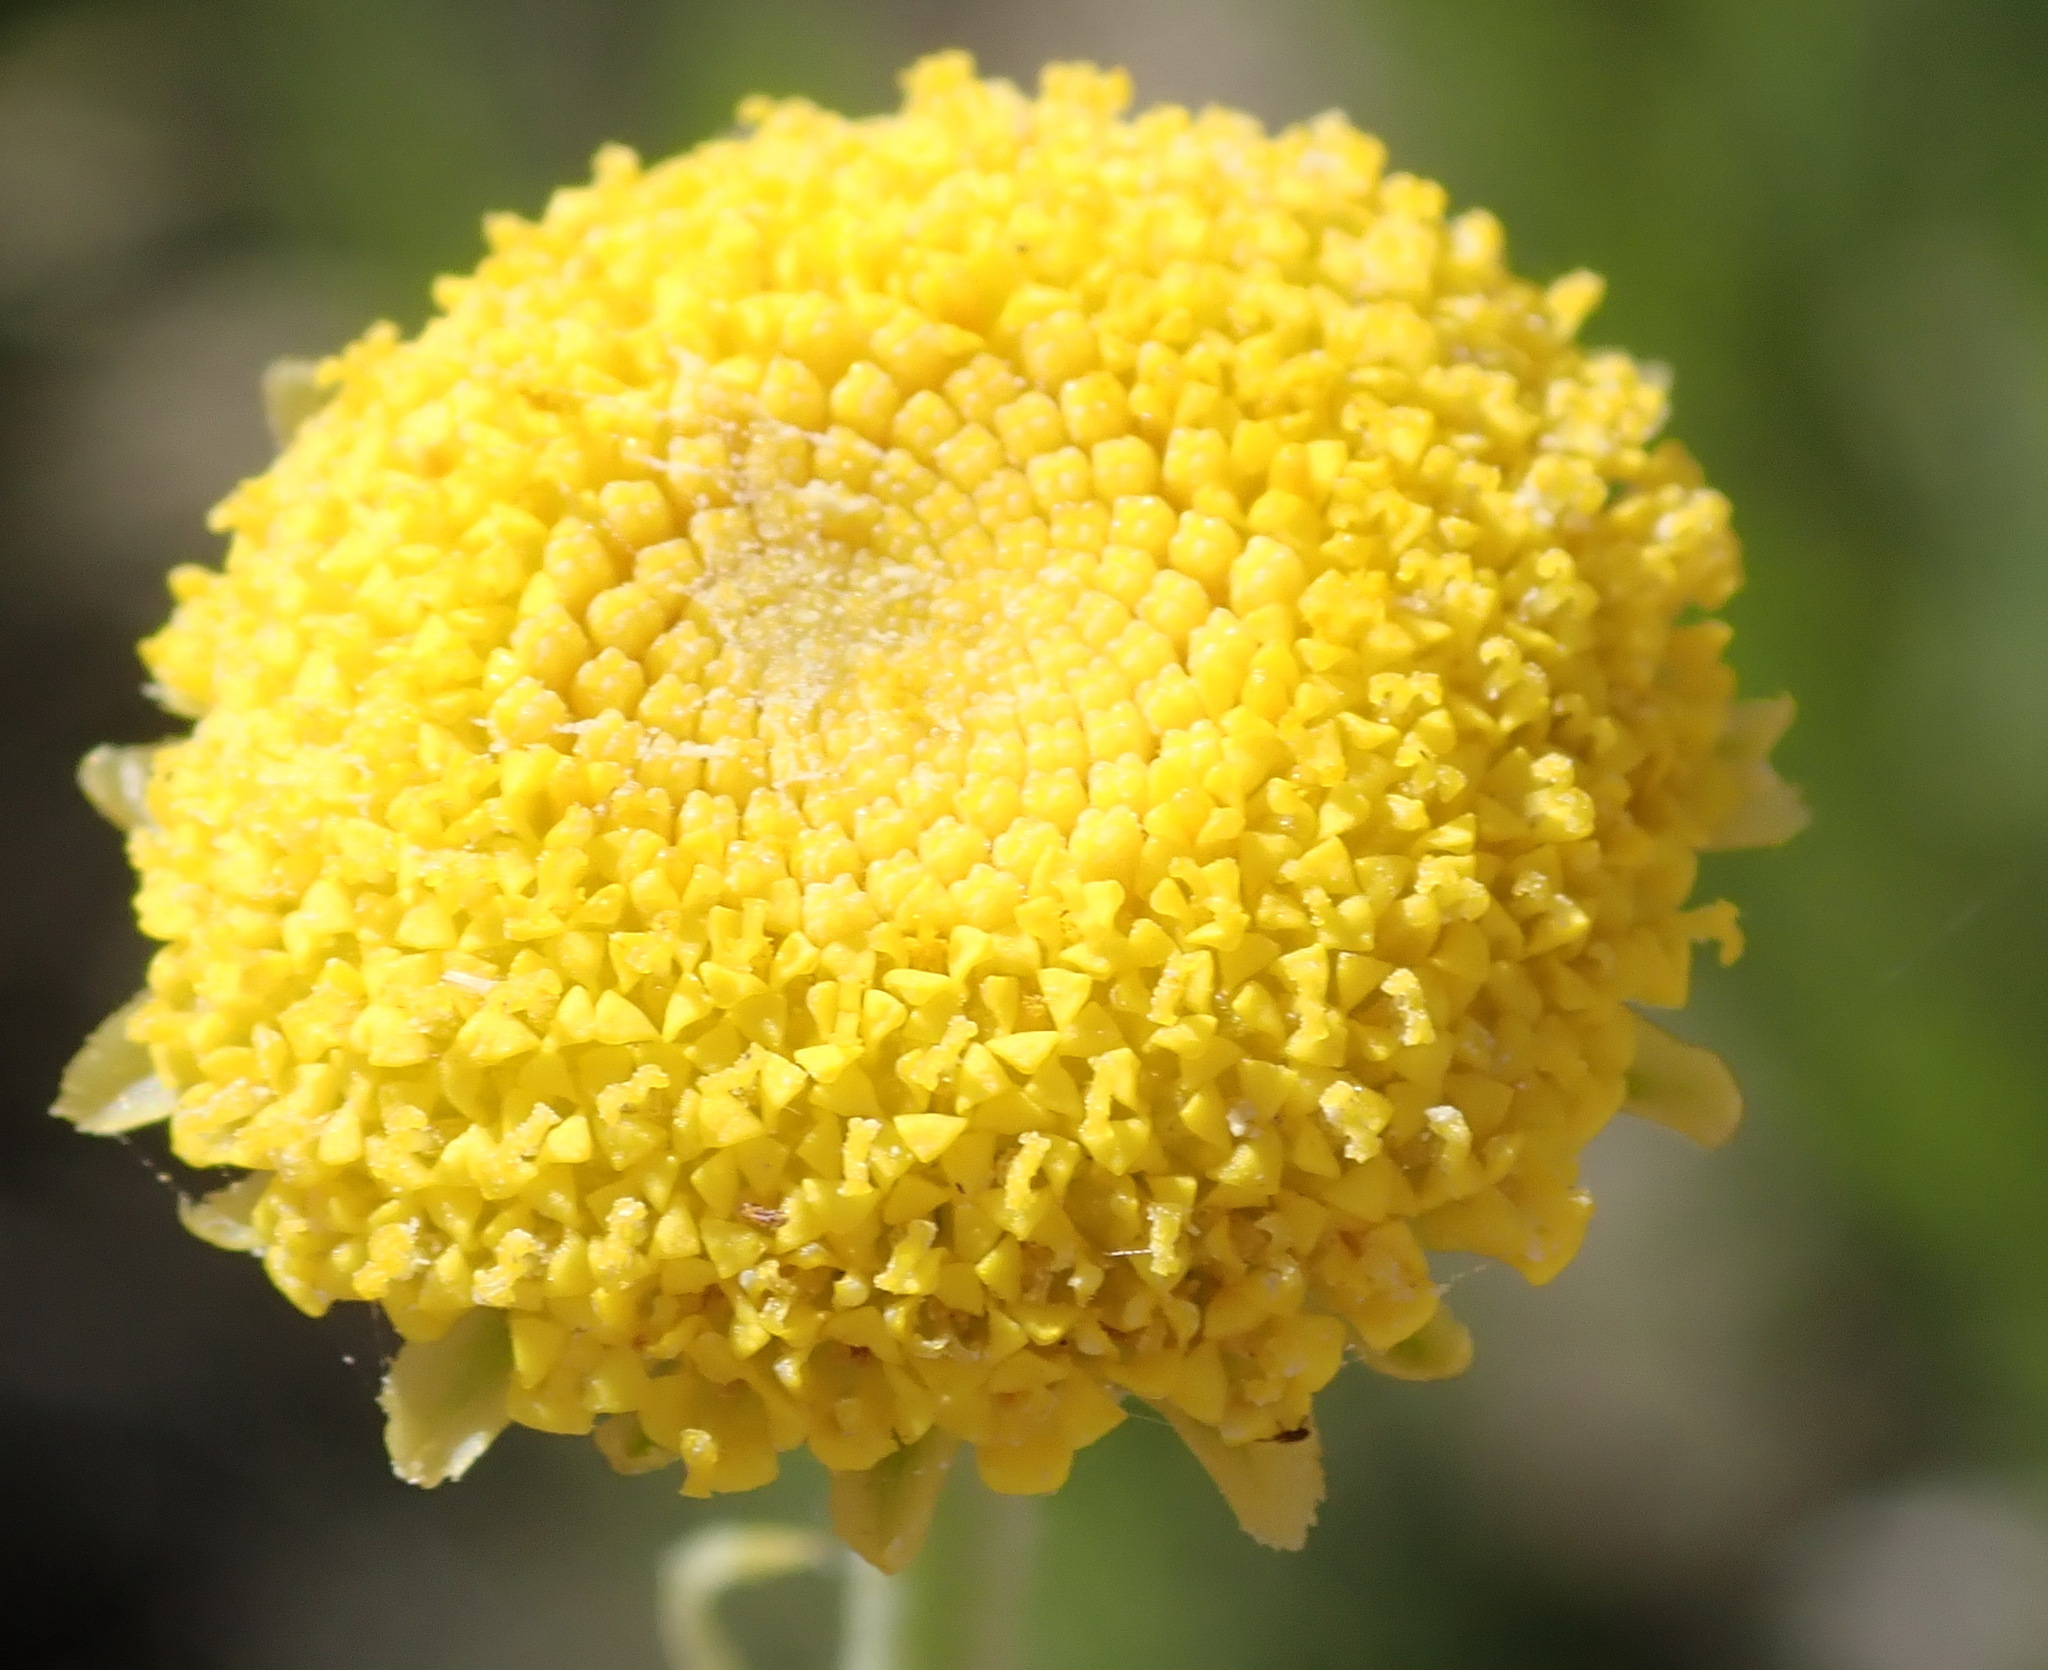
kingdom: Plantae
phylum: Tracheophyta
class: Magnoliopsida
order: Asterales
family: Asteraceae
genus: Schistostephium
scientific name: Schistostephium umbellatum
